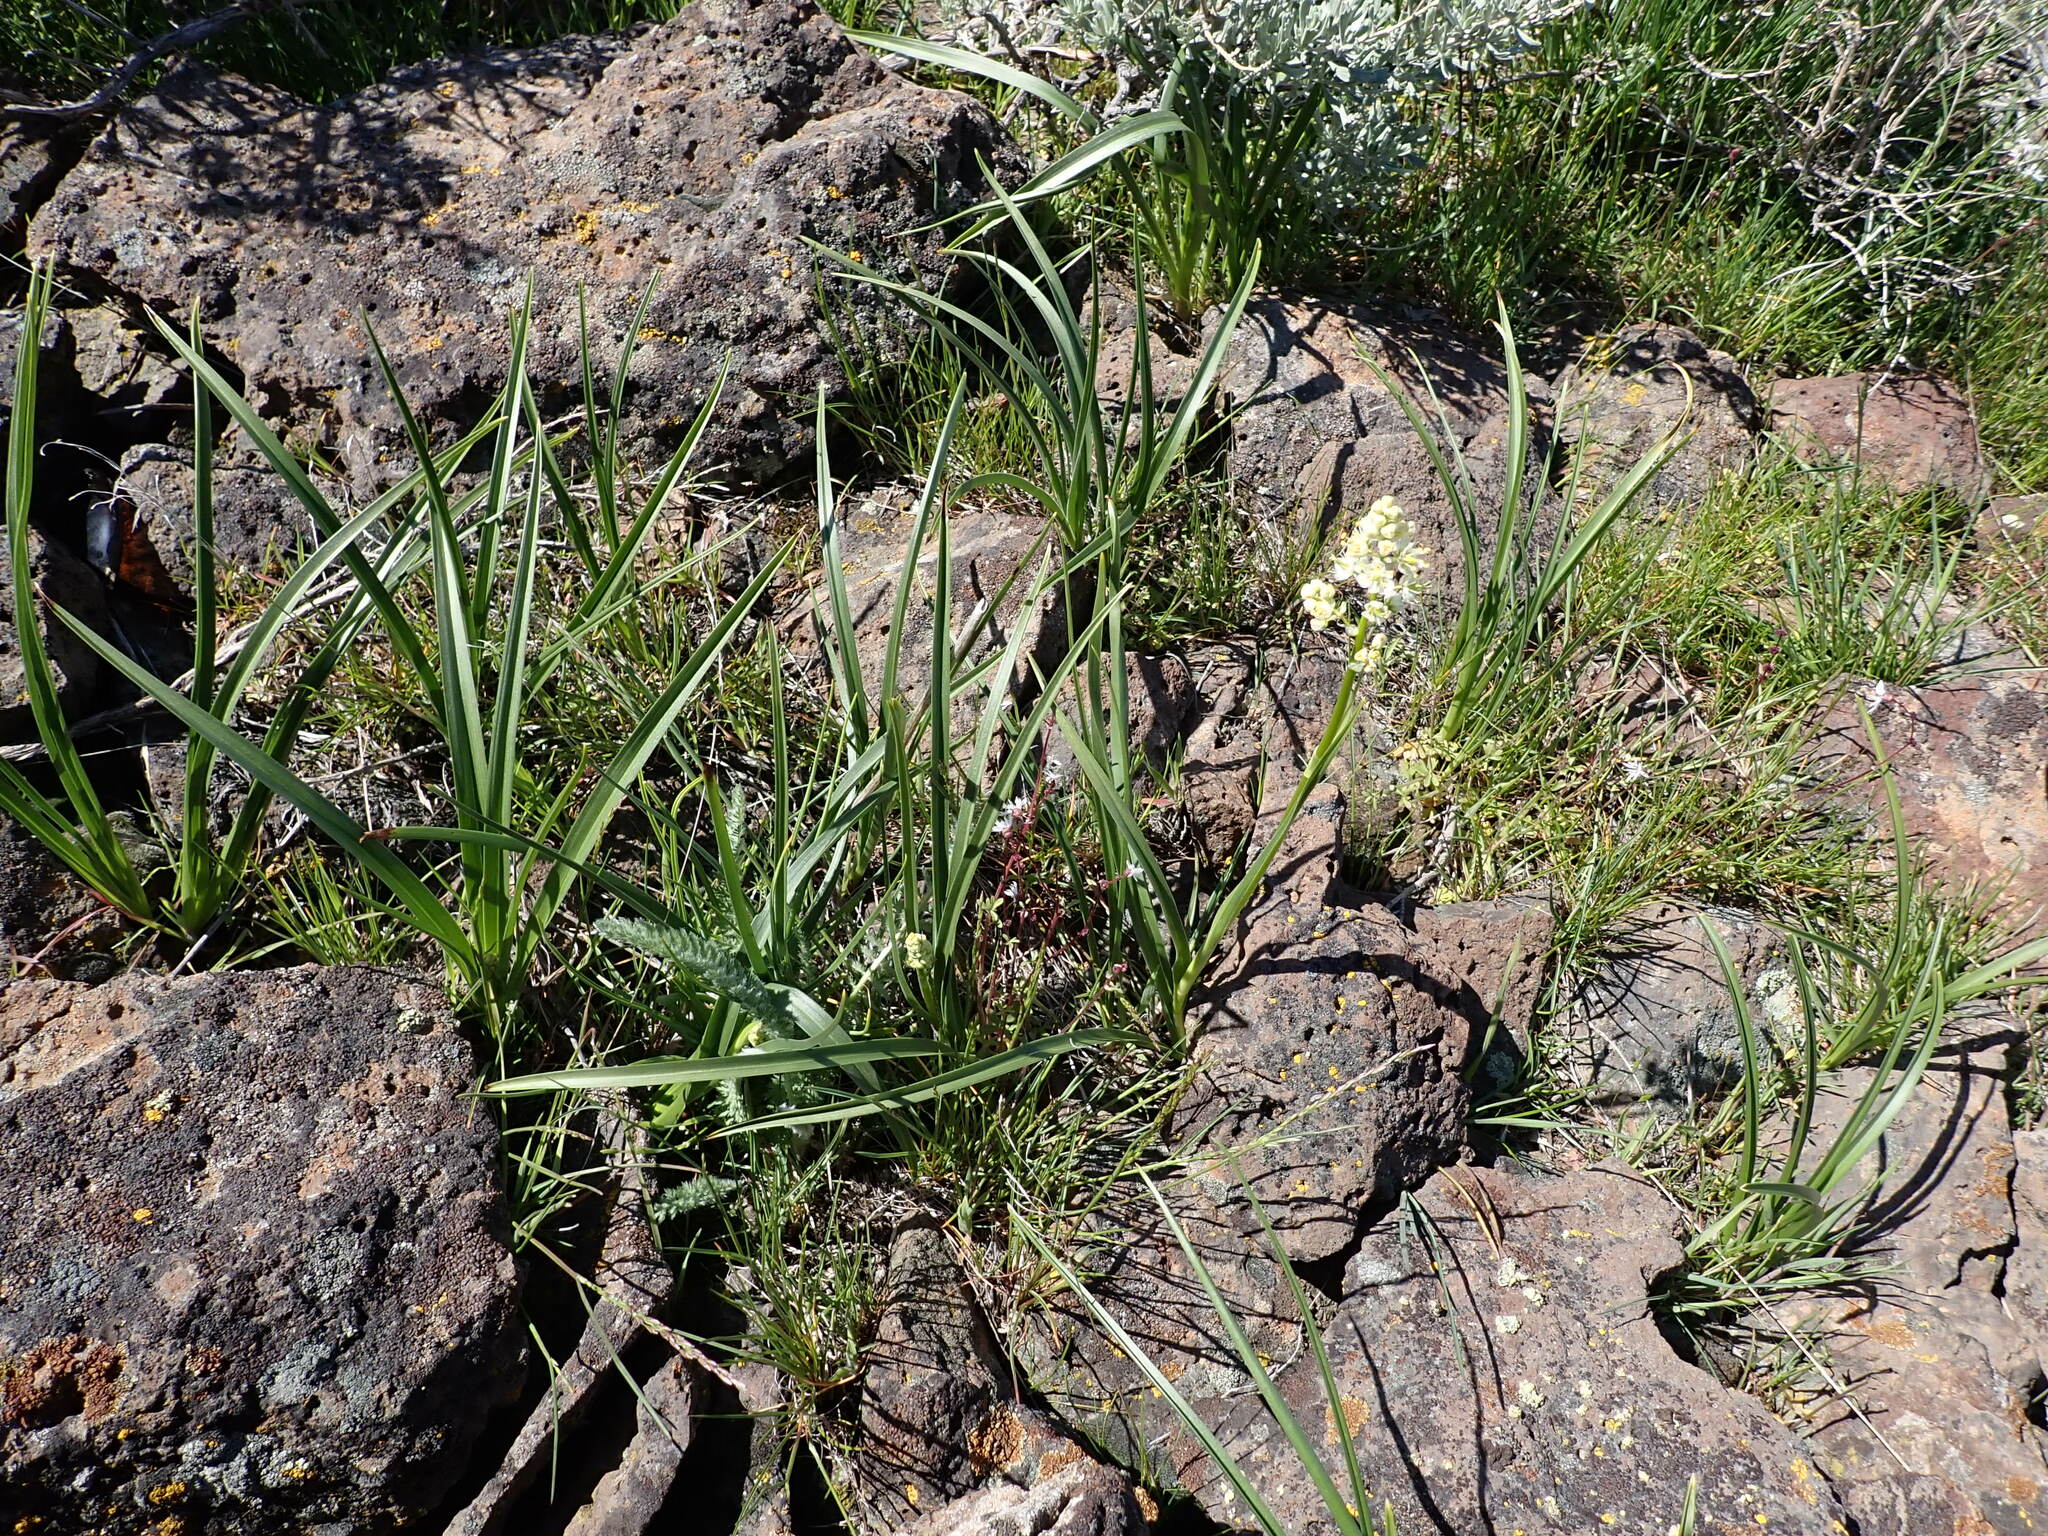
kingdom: Plantae
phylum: Tracheophyta
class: Liliopsida
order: Liliales
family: Melanthiaceae
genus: Toxicoscordion
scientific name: Toxicoscordion paniculatum
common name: Foothill death camas
